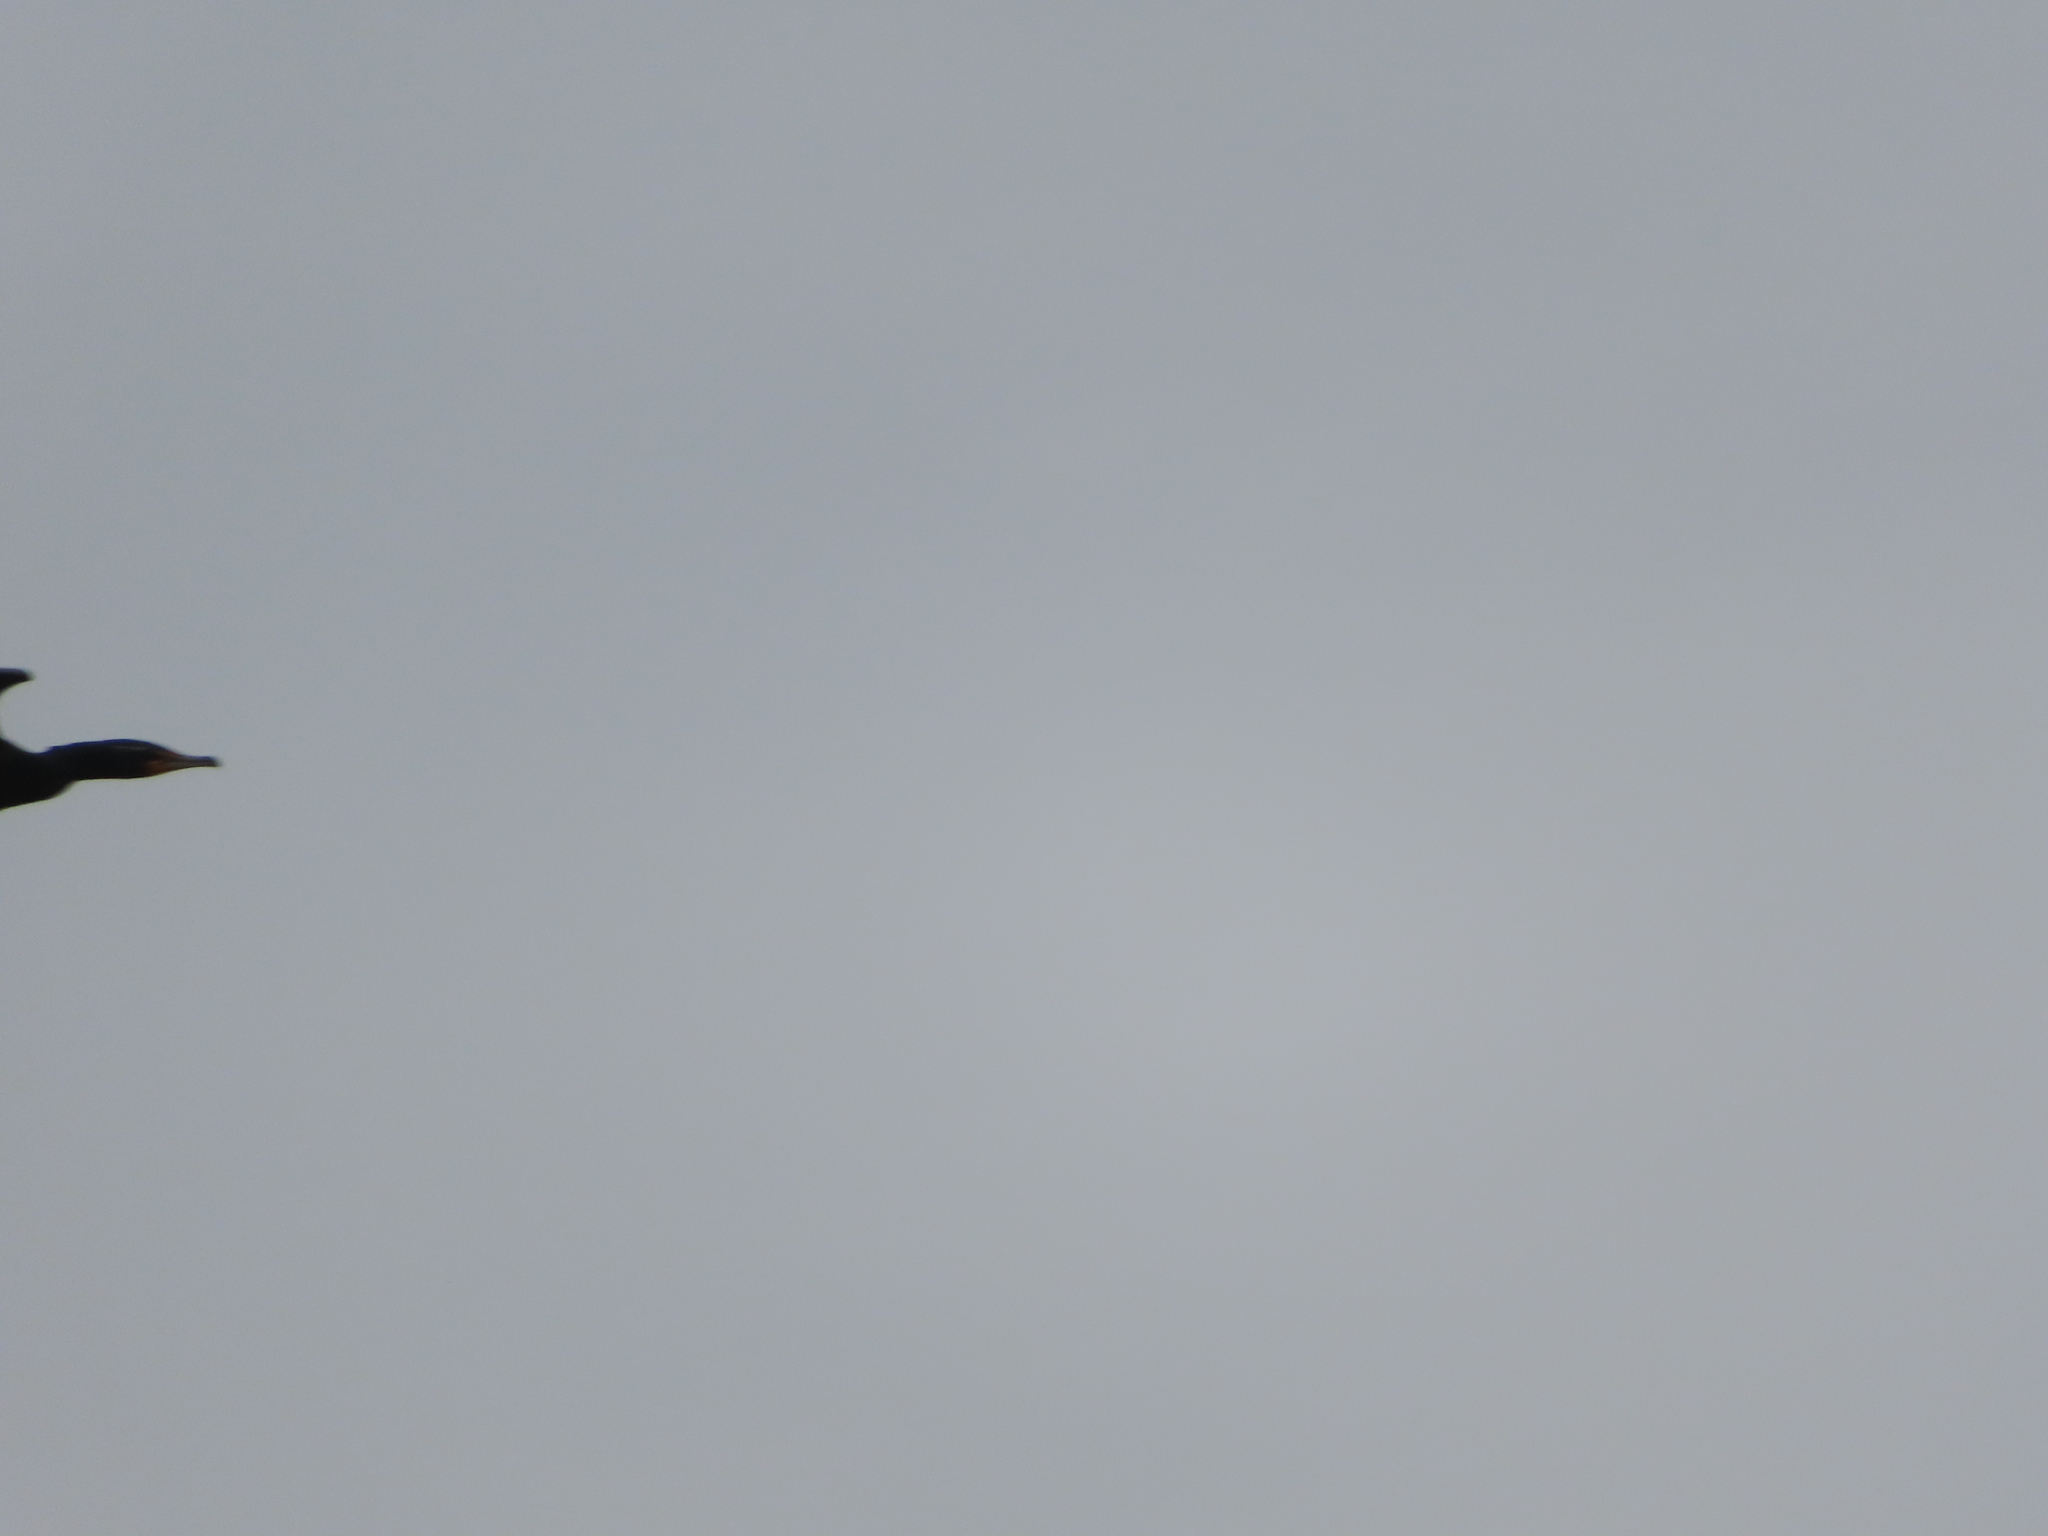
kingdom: Animalia
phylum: Chordata
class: Aves
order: Suliformes
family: Phalacrocoracidae
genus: Phalacrocorax
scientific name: Phalacrocorax auritus
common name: Double-crested cormorant
